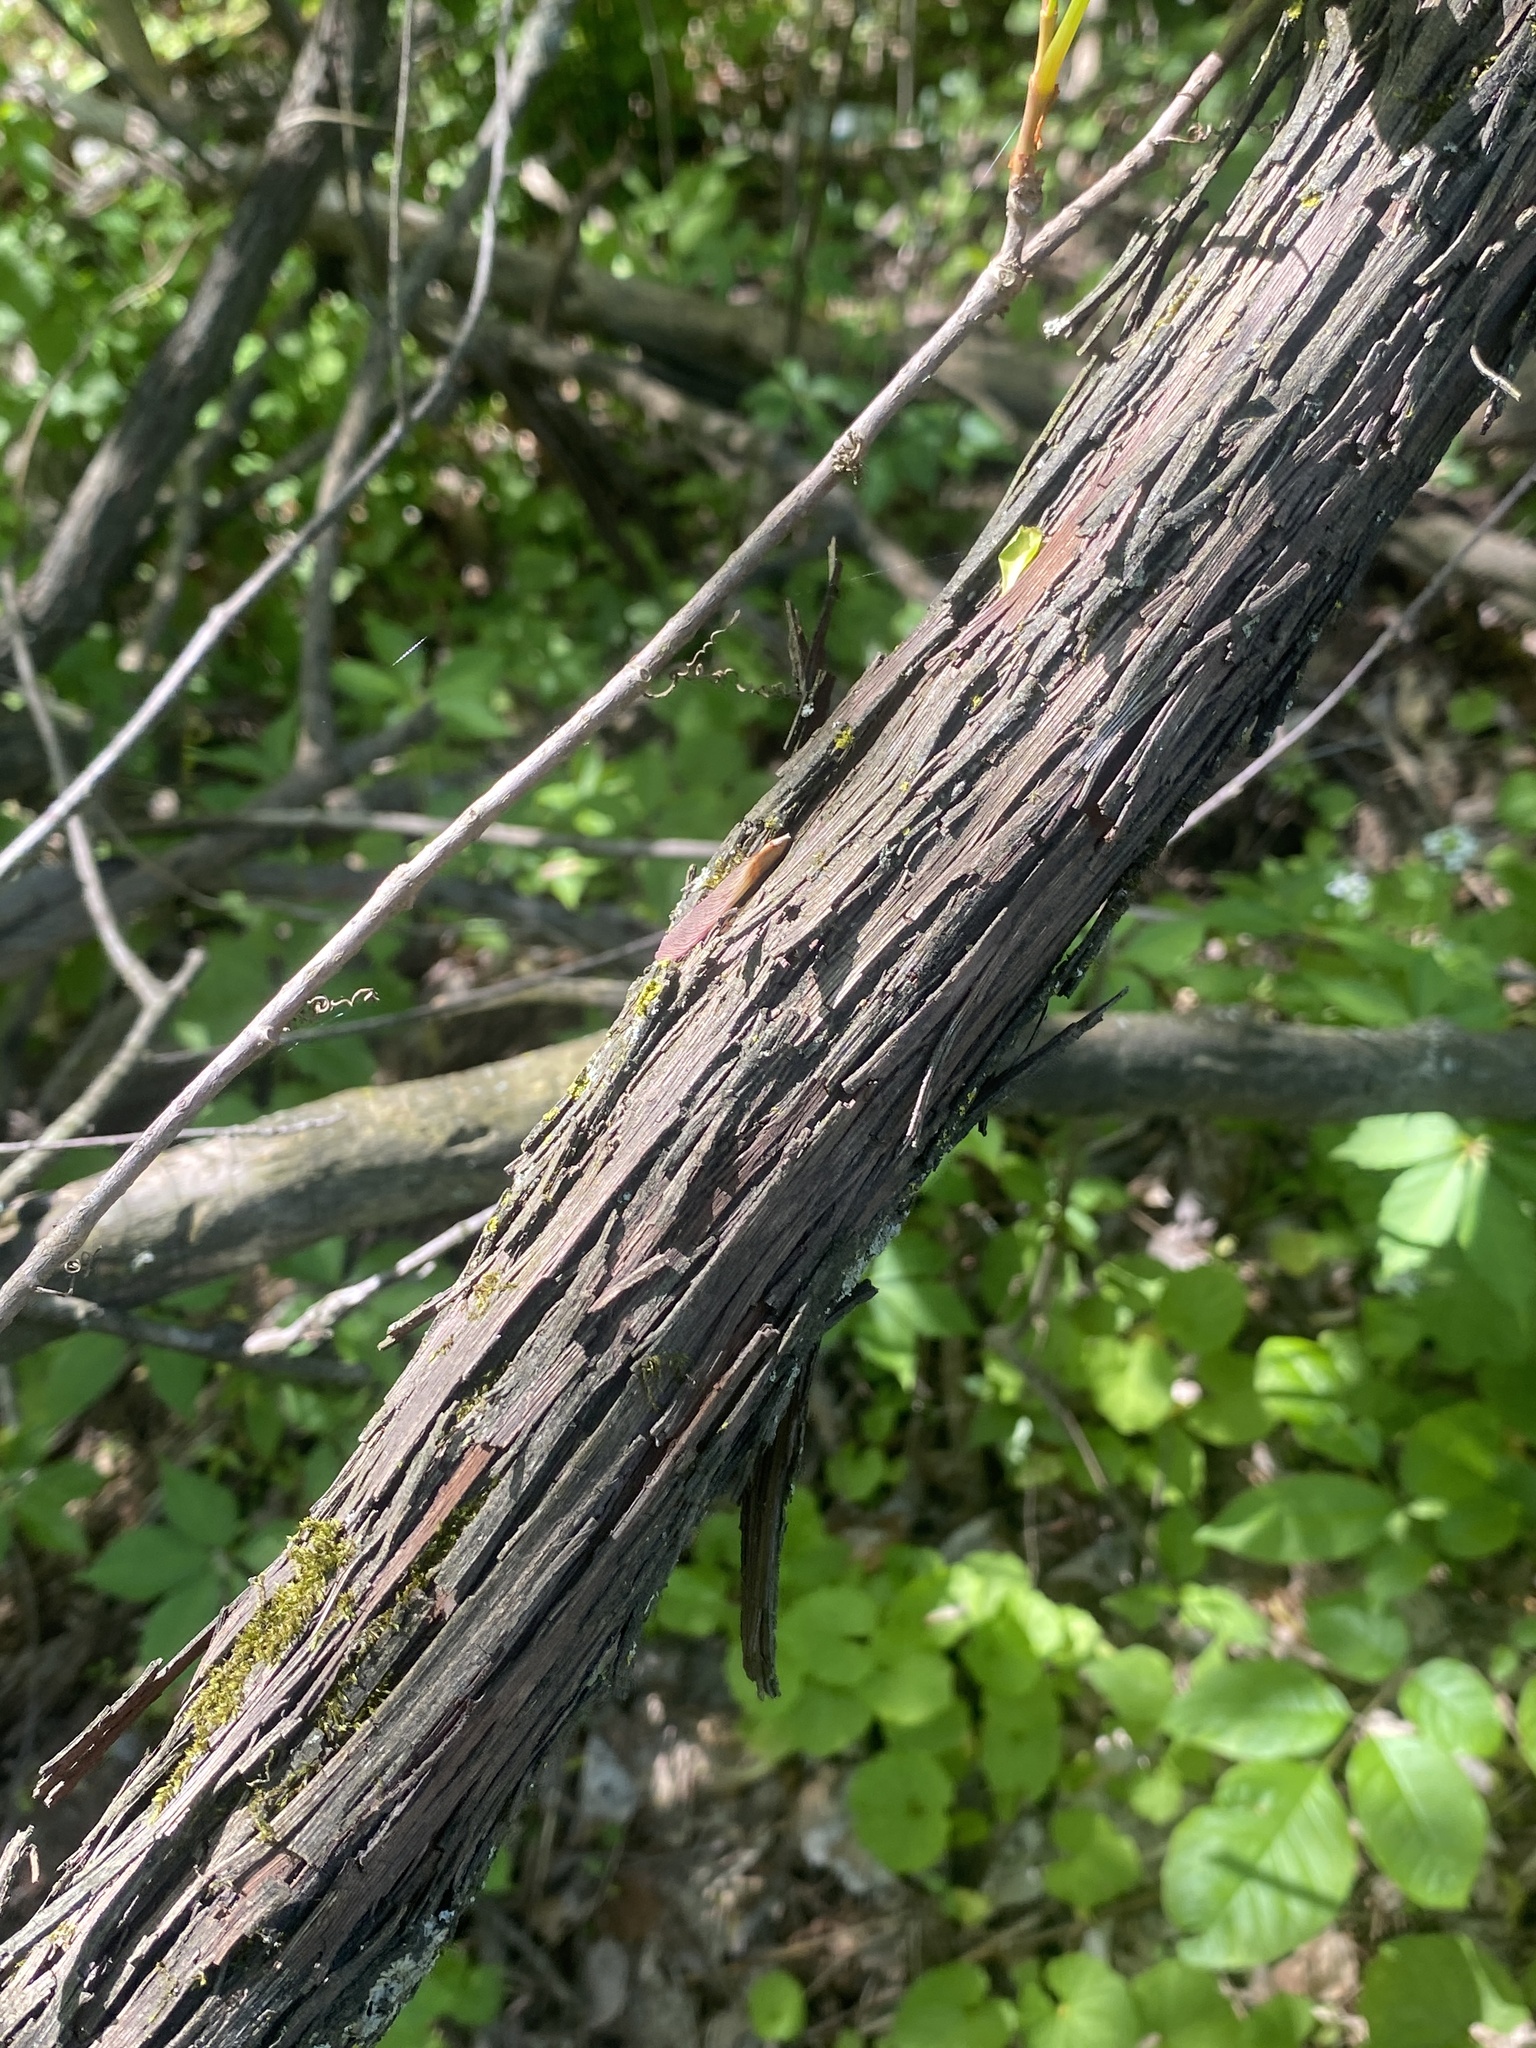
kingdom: Plantae
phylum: Tracheophyta
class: Magnoliopsida
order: Vitales
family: Vitaceae
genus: Vitis
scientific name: Vitis
